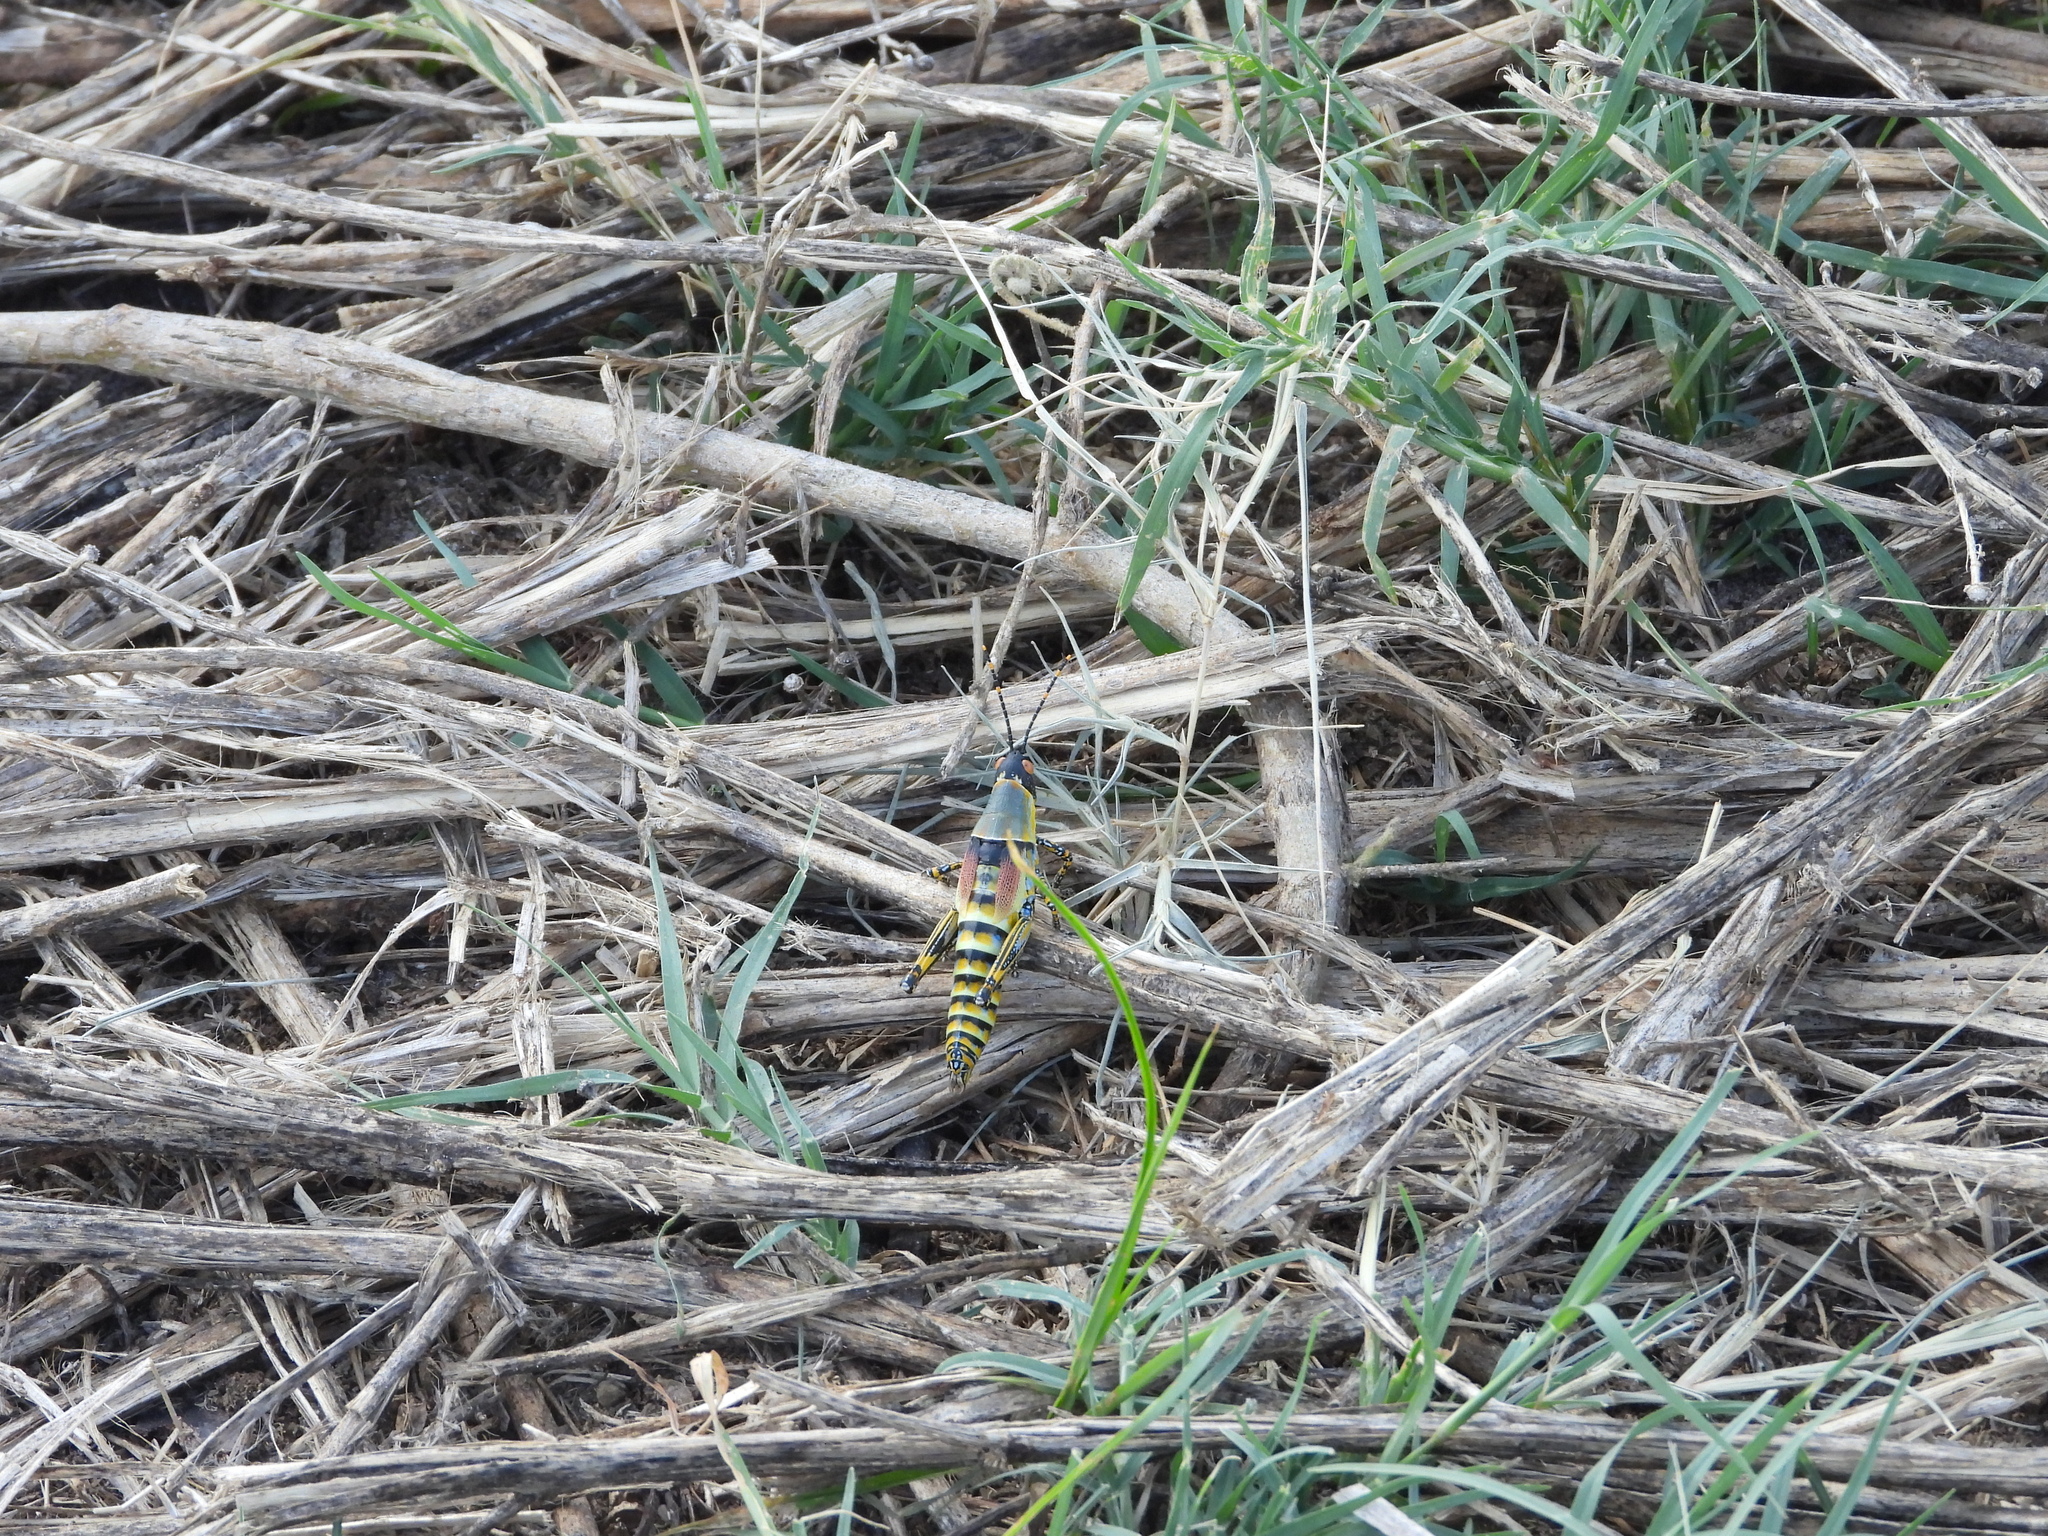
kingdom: Animalia
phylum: Arthropoda
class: Insecta
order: Orthoptera
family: Pyrgomorphidae
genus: Zonocerus
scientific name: Zonocerus elegans
